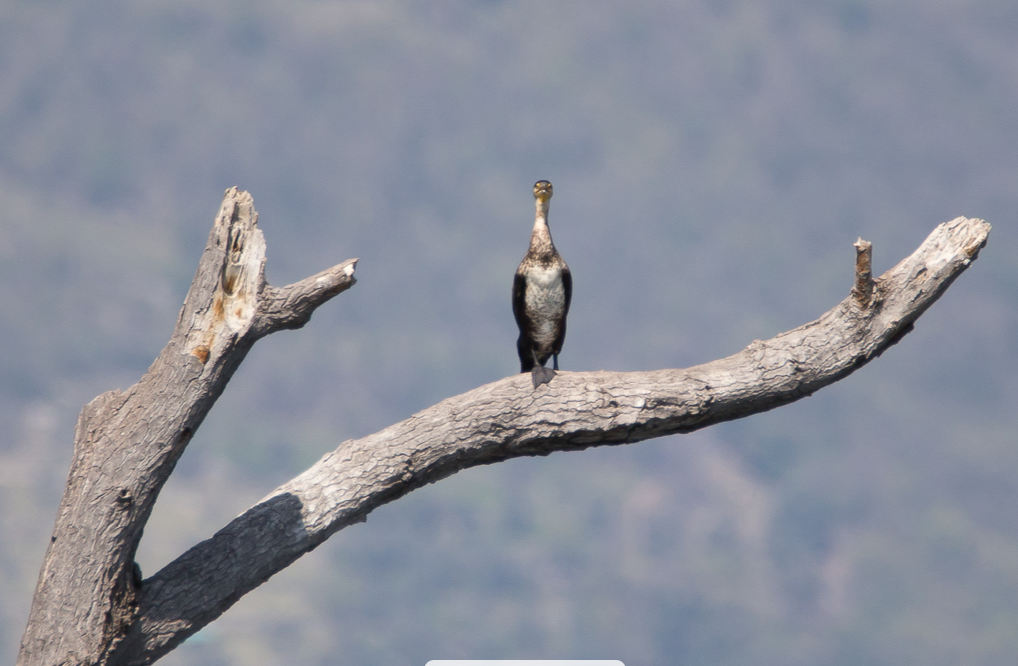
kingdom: Animalia
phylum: Chordata
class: Aves
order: Suliformes
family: Phalacrocoracidae
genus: Phalacrocorax
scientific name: Phalacrocorax carbo
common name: Great cormorant
